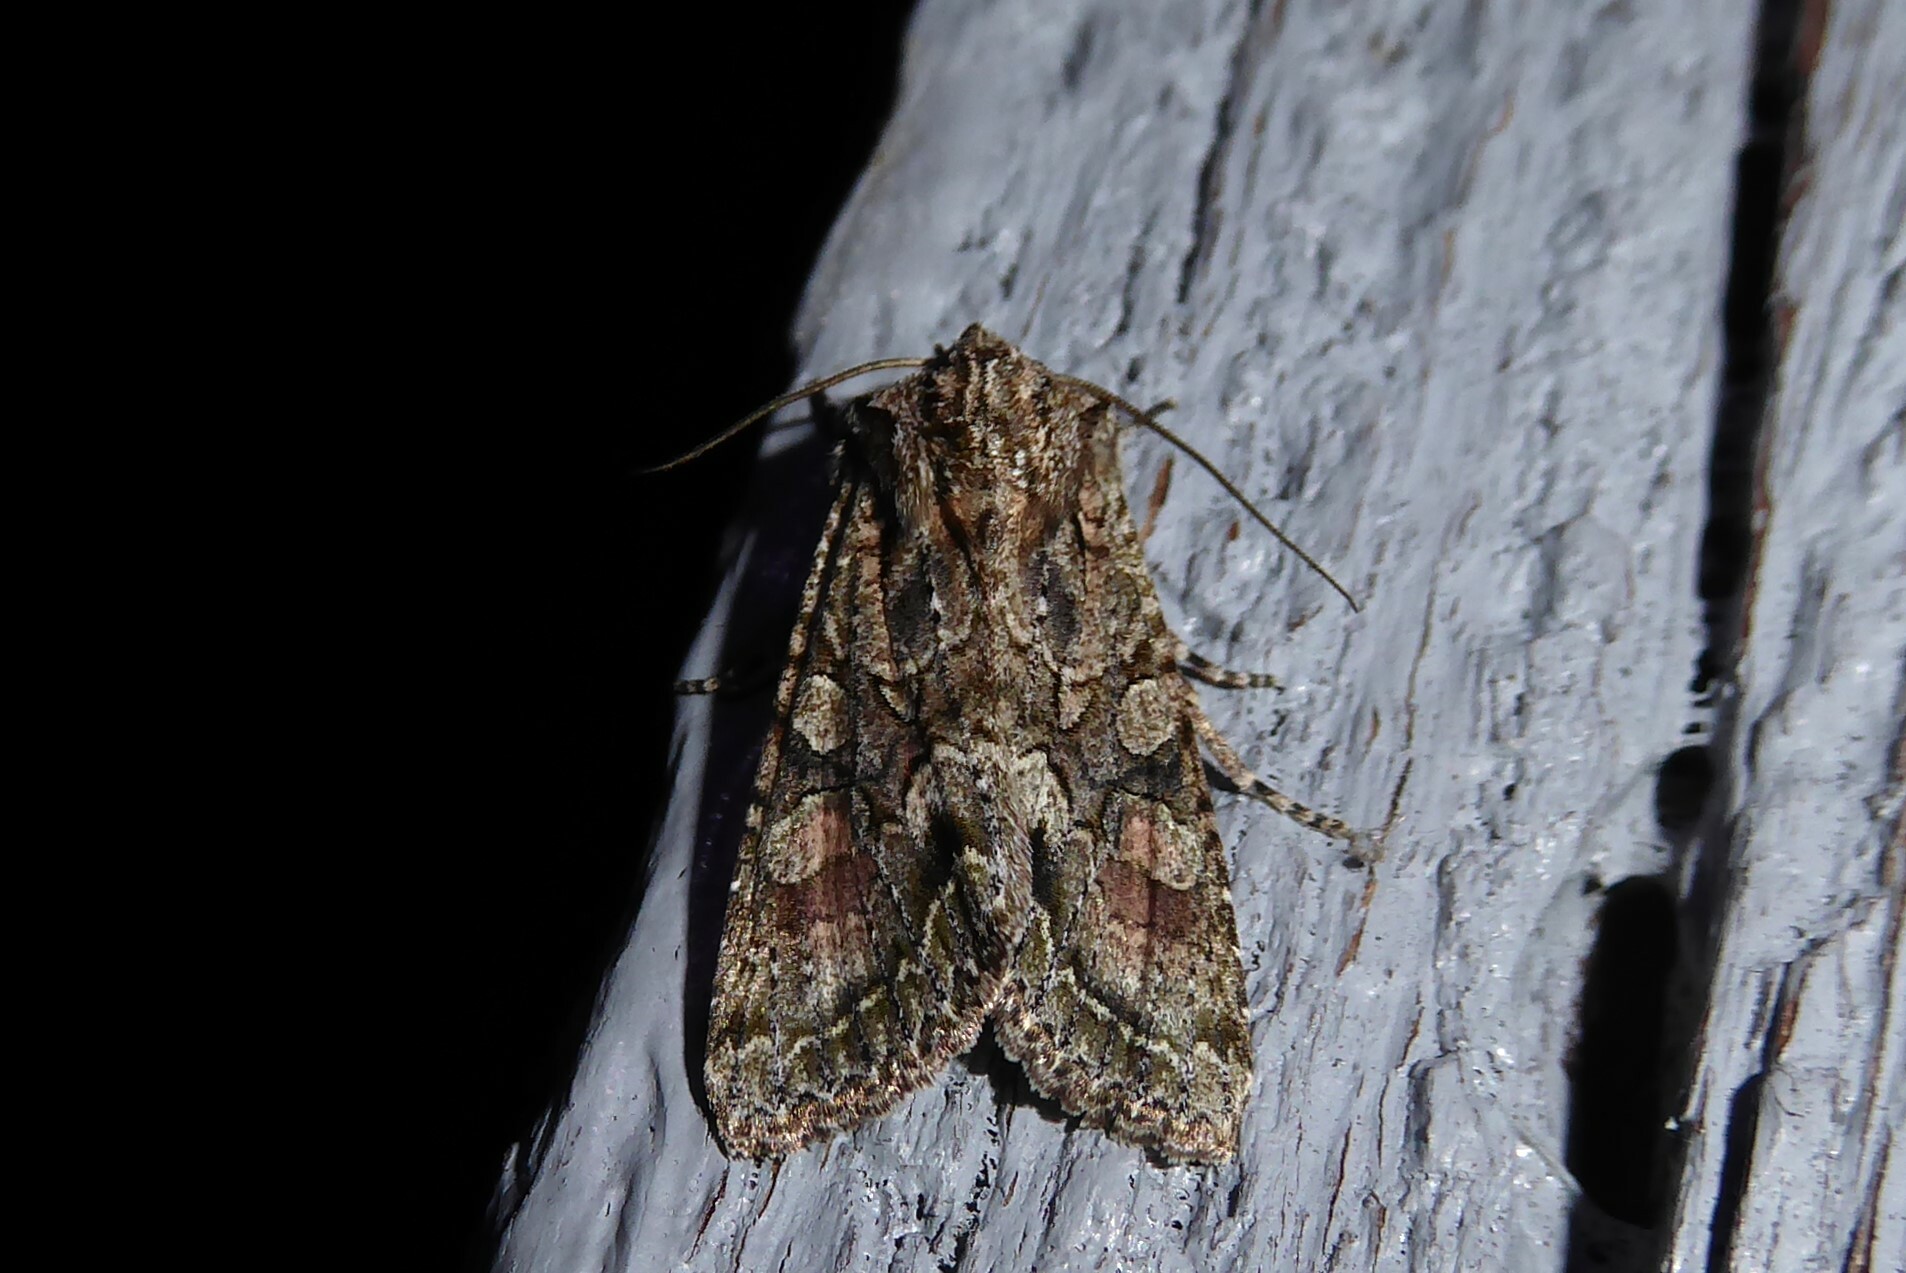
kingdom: Animalia
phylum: Arthropoda
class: Insecta
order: Lepidoptera
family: Noctuidae
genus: Ichneutica
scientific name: Ichneutica mutans
